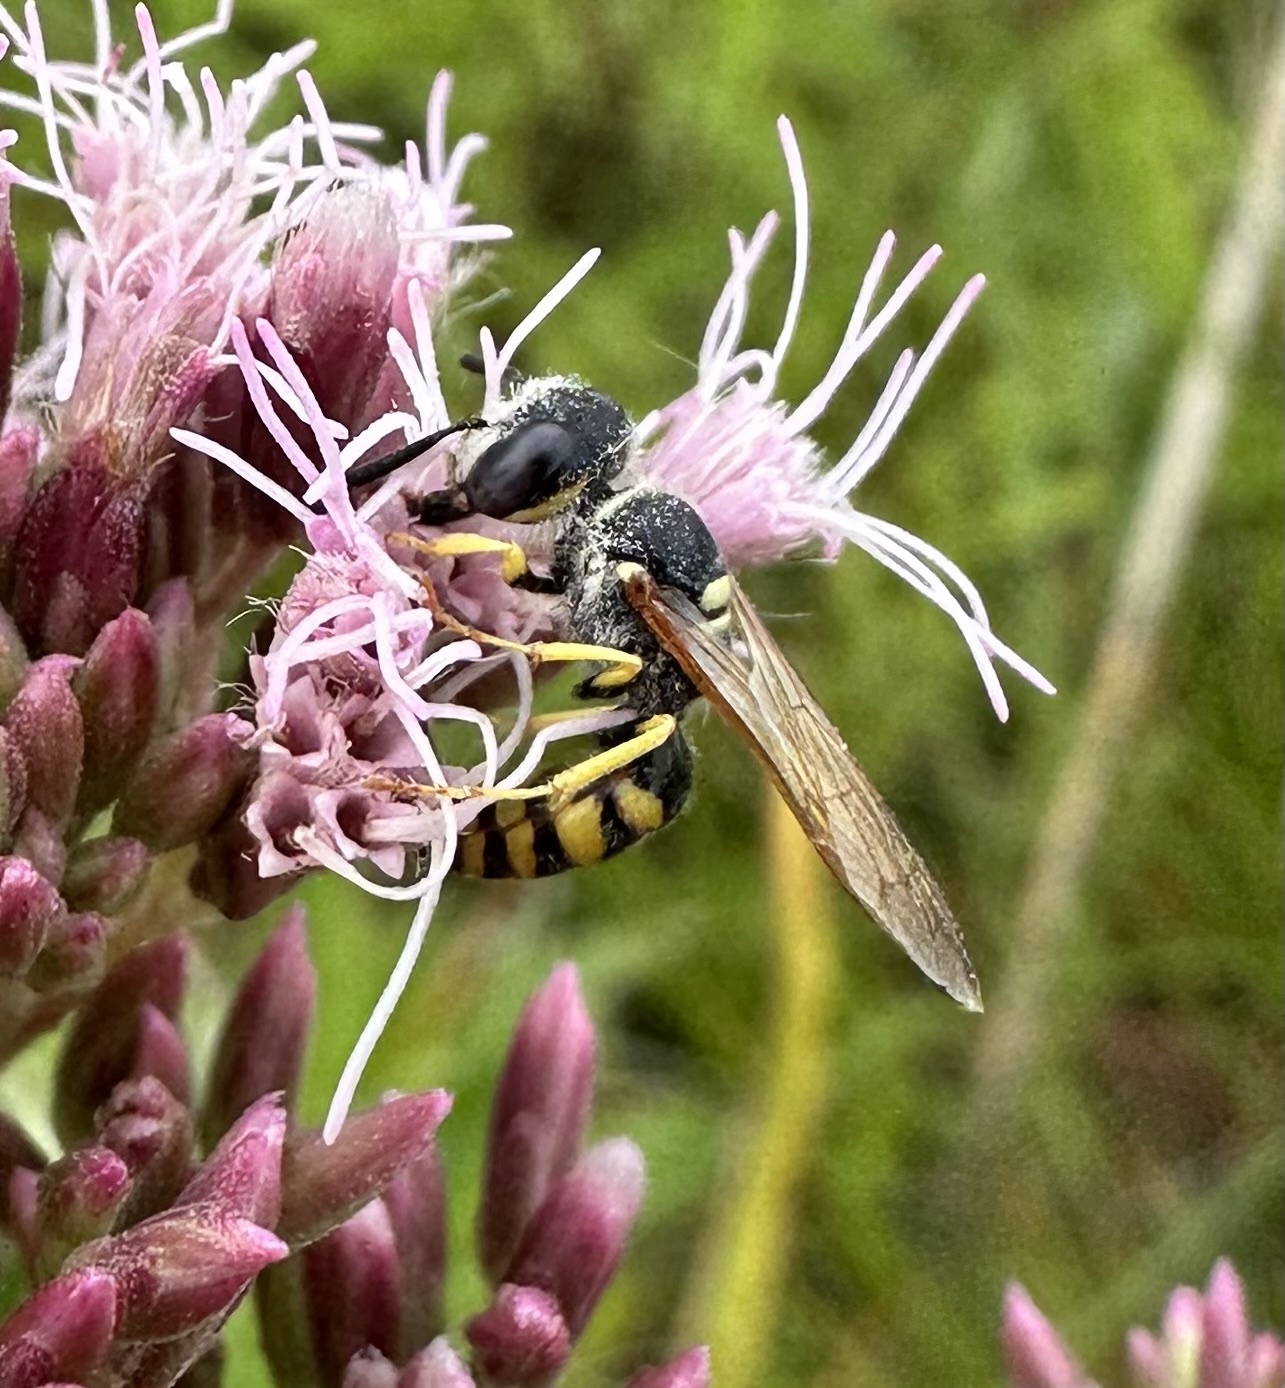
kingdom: Animalia
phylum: Arthropoda
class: Insecta
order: Hymenoptera
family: Crabronidae
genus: Philanthus
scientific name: Philanthus triangulum
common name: Bee wolf
